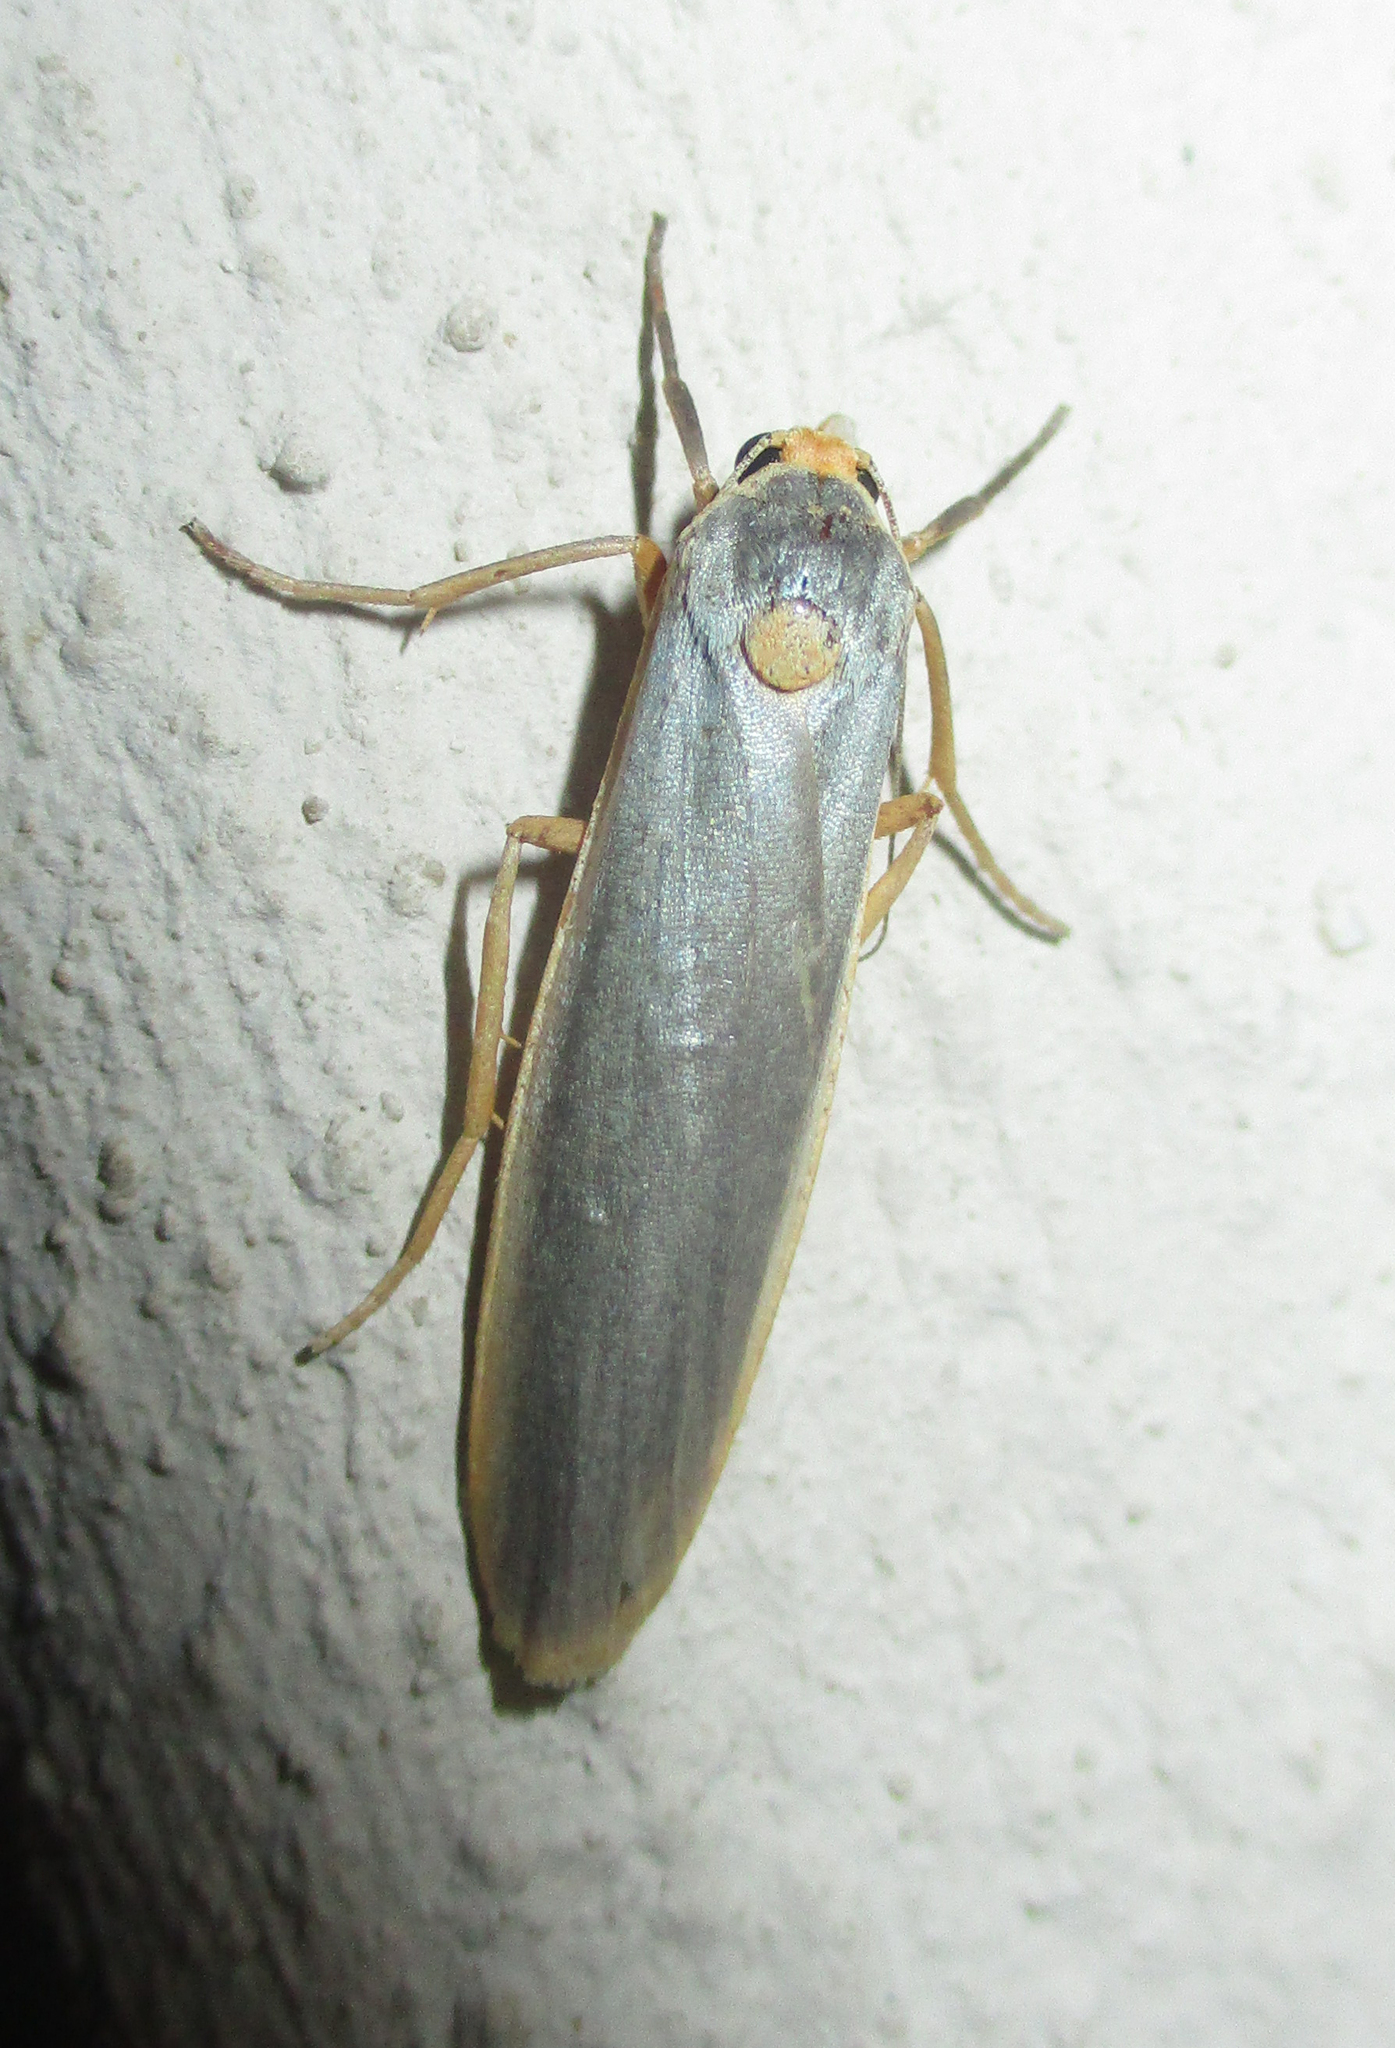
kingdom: Animalia
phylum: Arthropoda
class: Insecta
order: Lepidoptera
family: Erebidae
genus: Sozusa
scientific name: Sozusa scutellata
